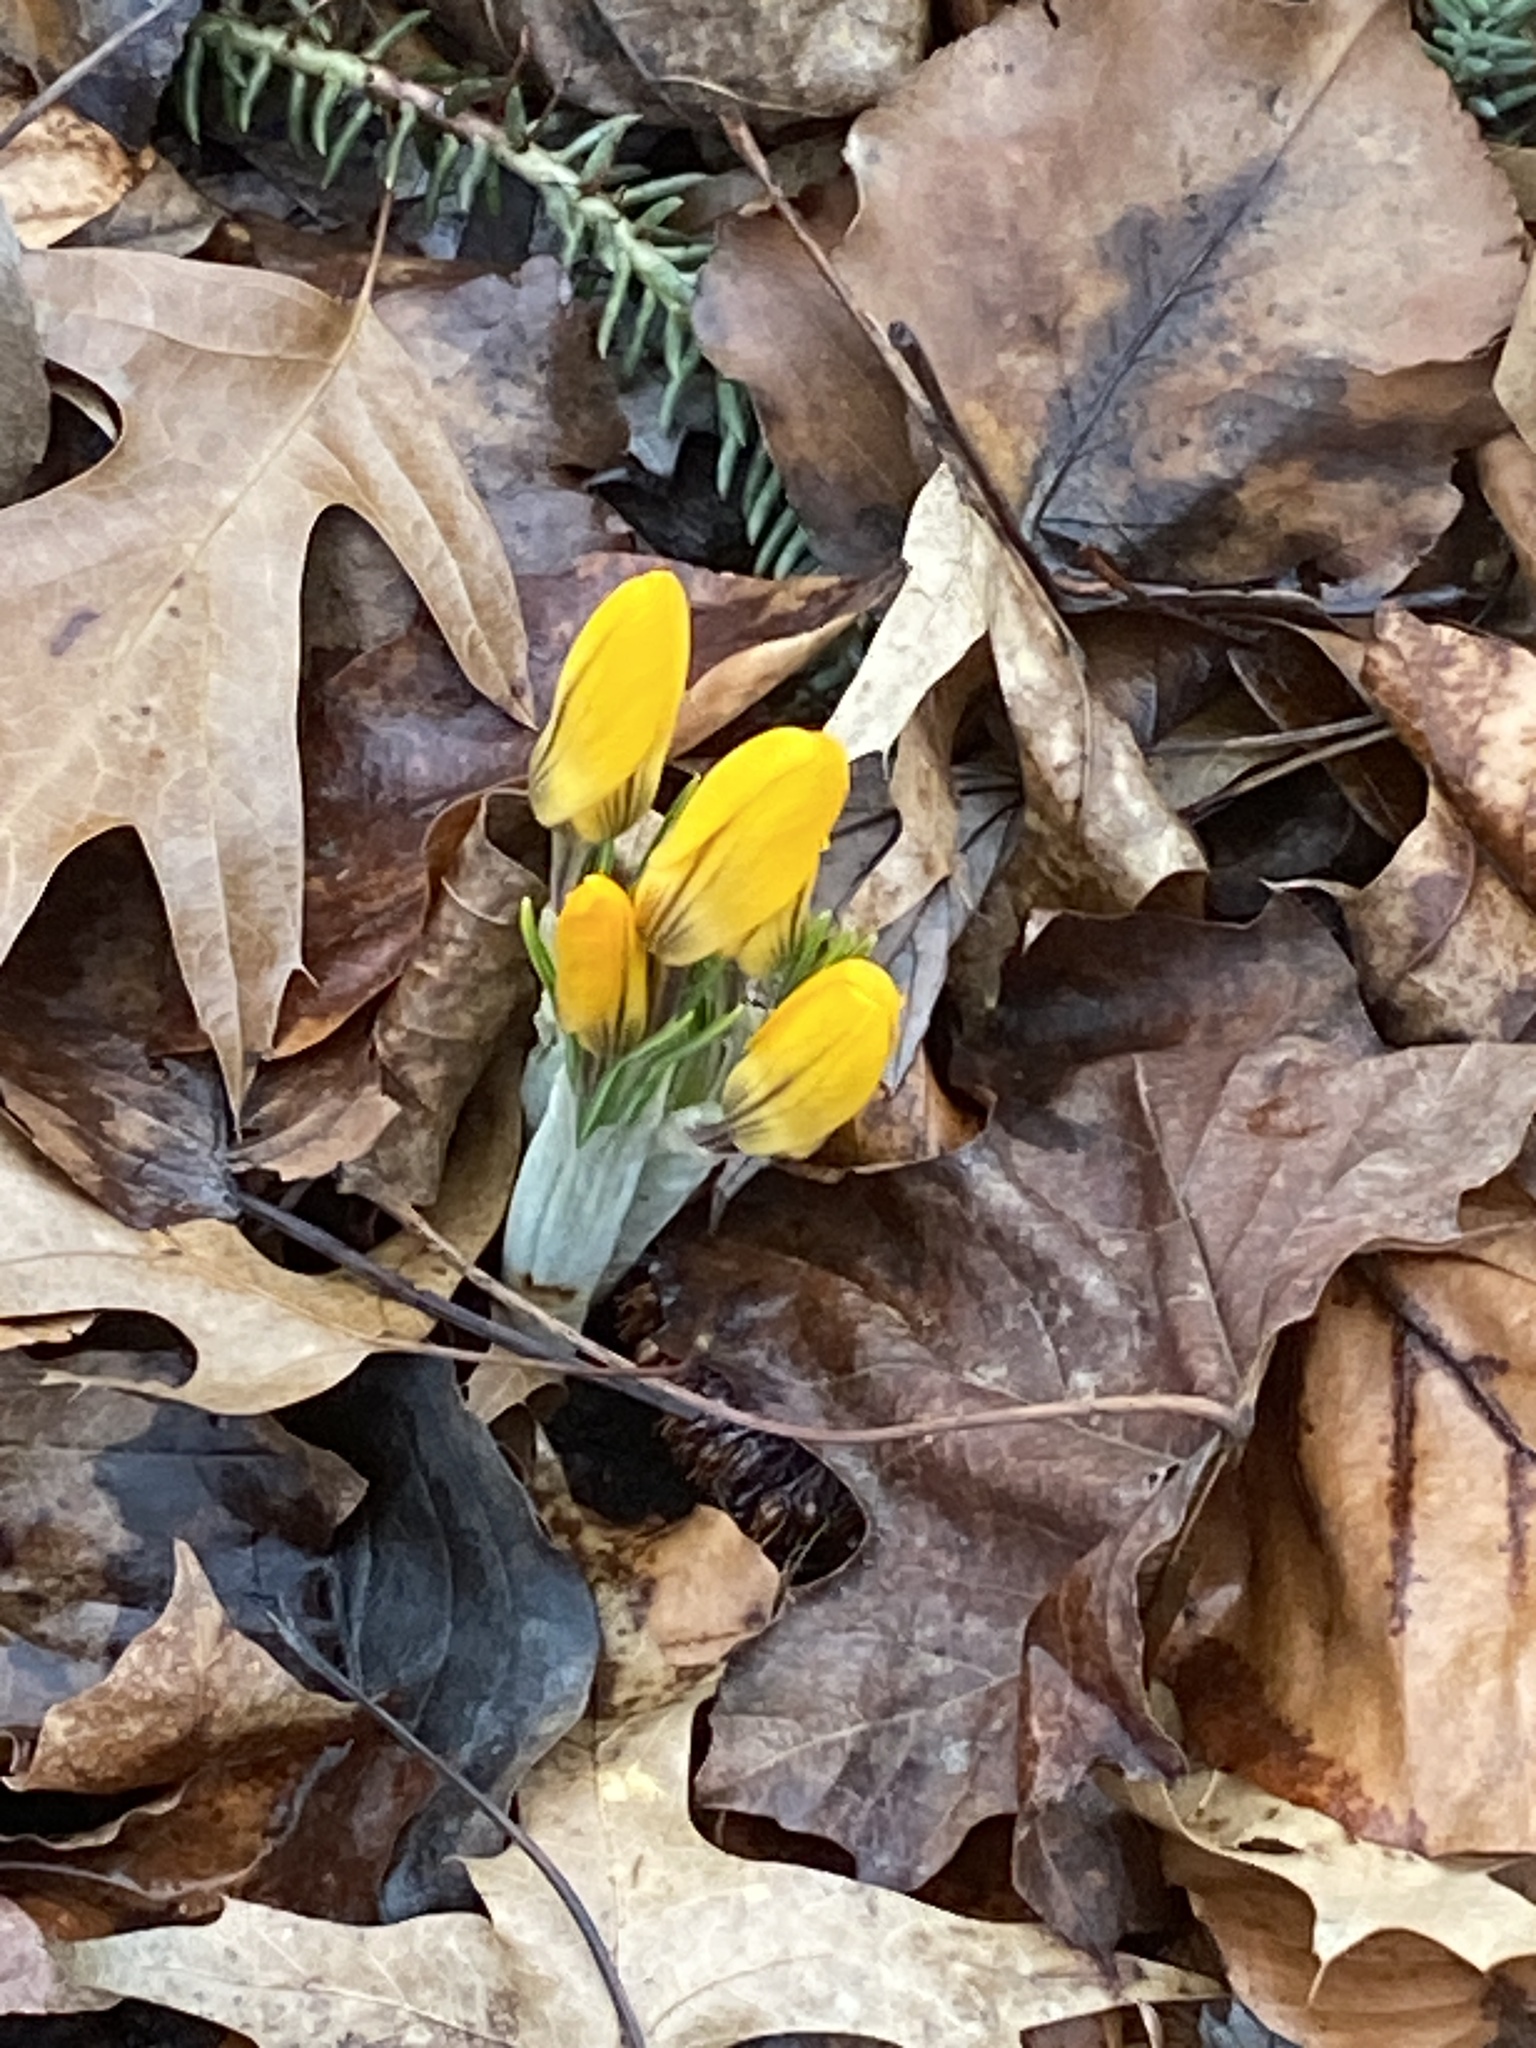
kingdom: Plantae
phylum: Tracheophyta
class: Liliopsida
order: Asparagales
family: Iridaceae
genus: Crocus
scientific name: Crocus luteus
